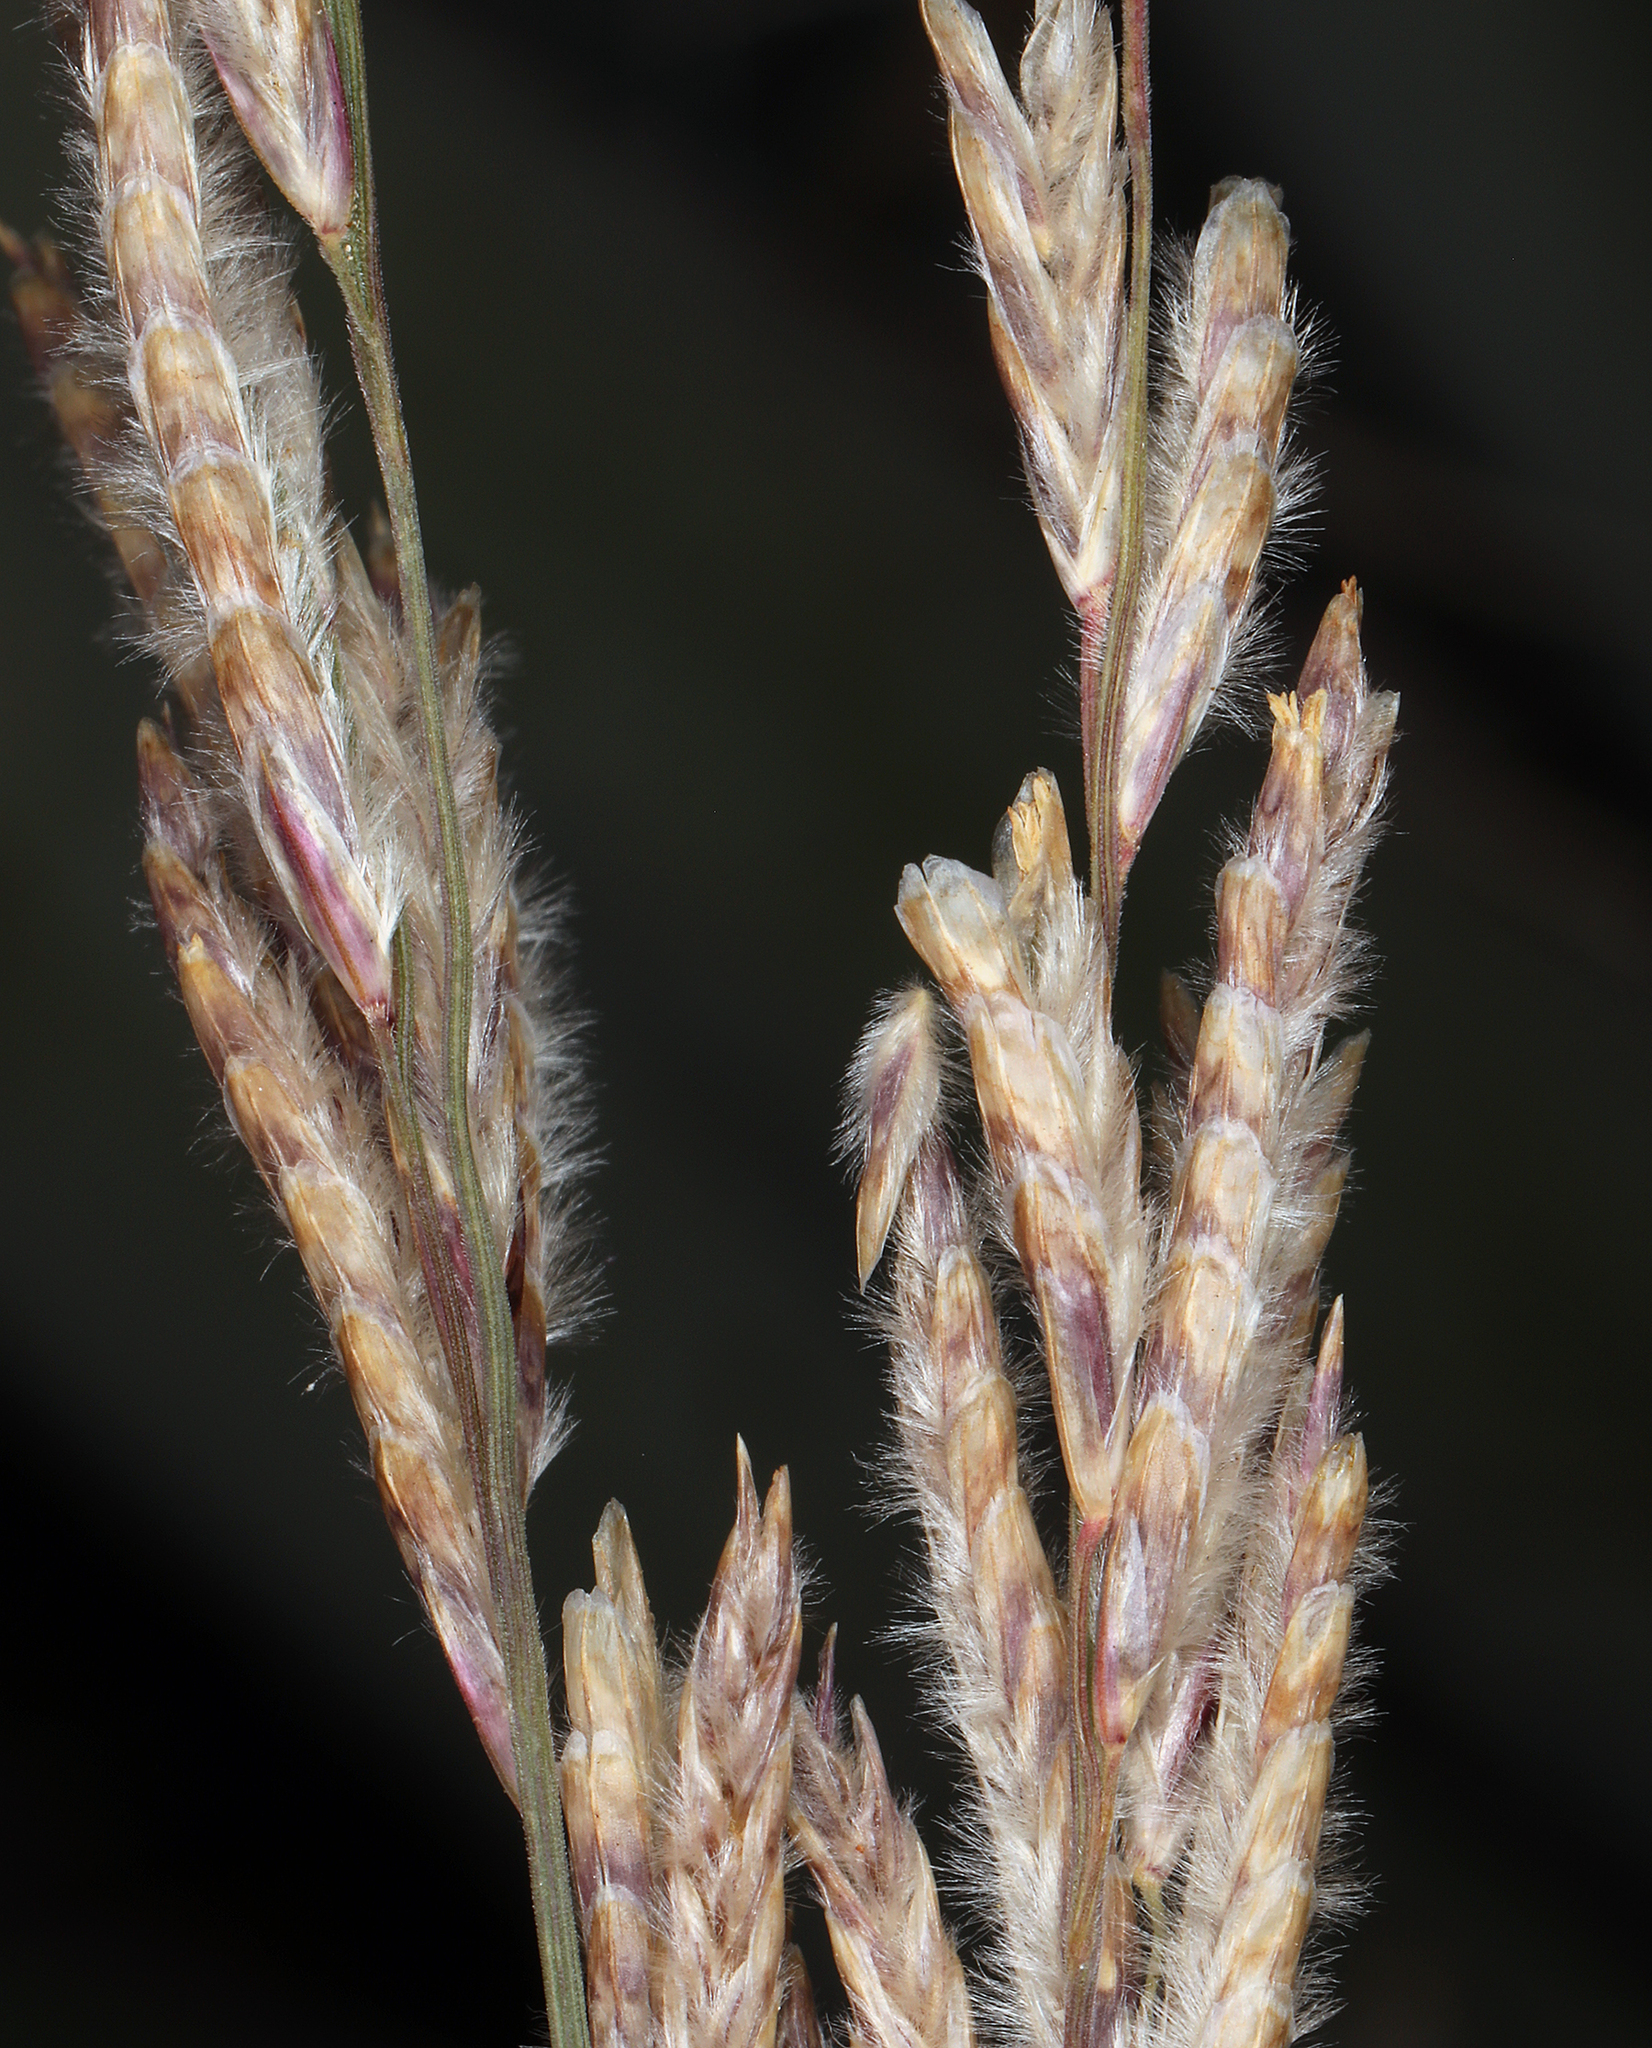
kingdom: Plantae
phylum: Tracheophyta
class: Liliopsida
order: Poales
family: Poaceae
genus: Tridentopsis
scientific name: Tridentopsis mutica
